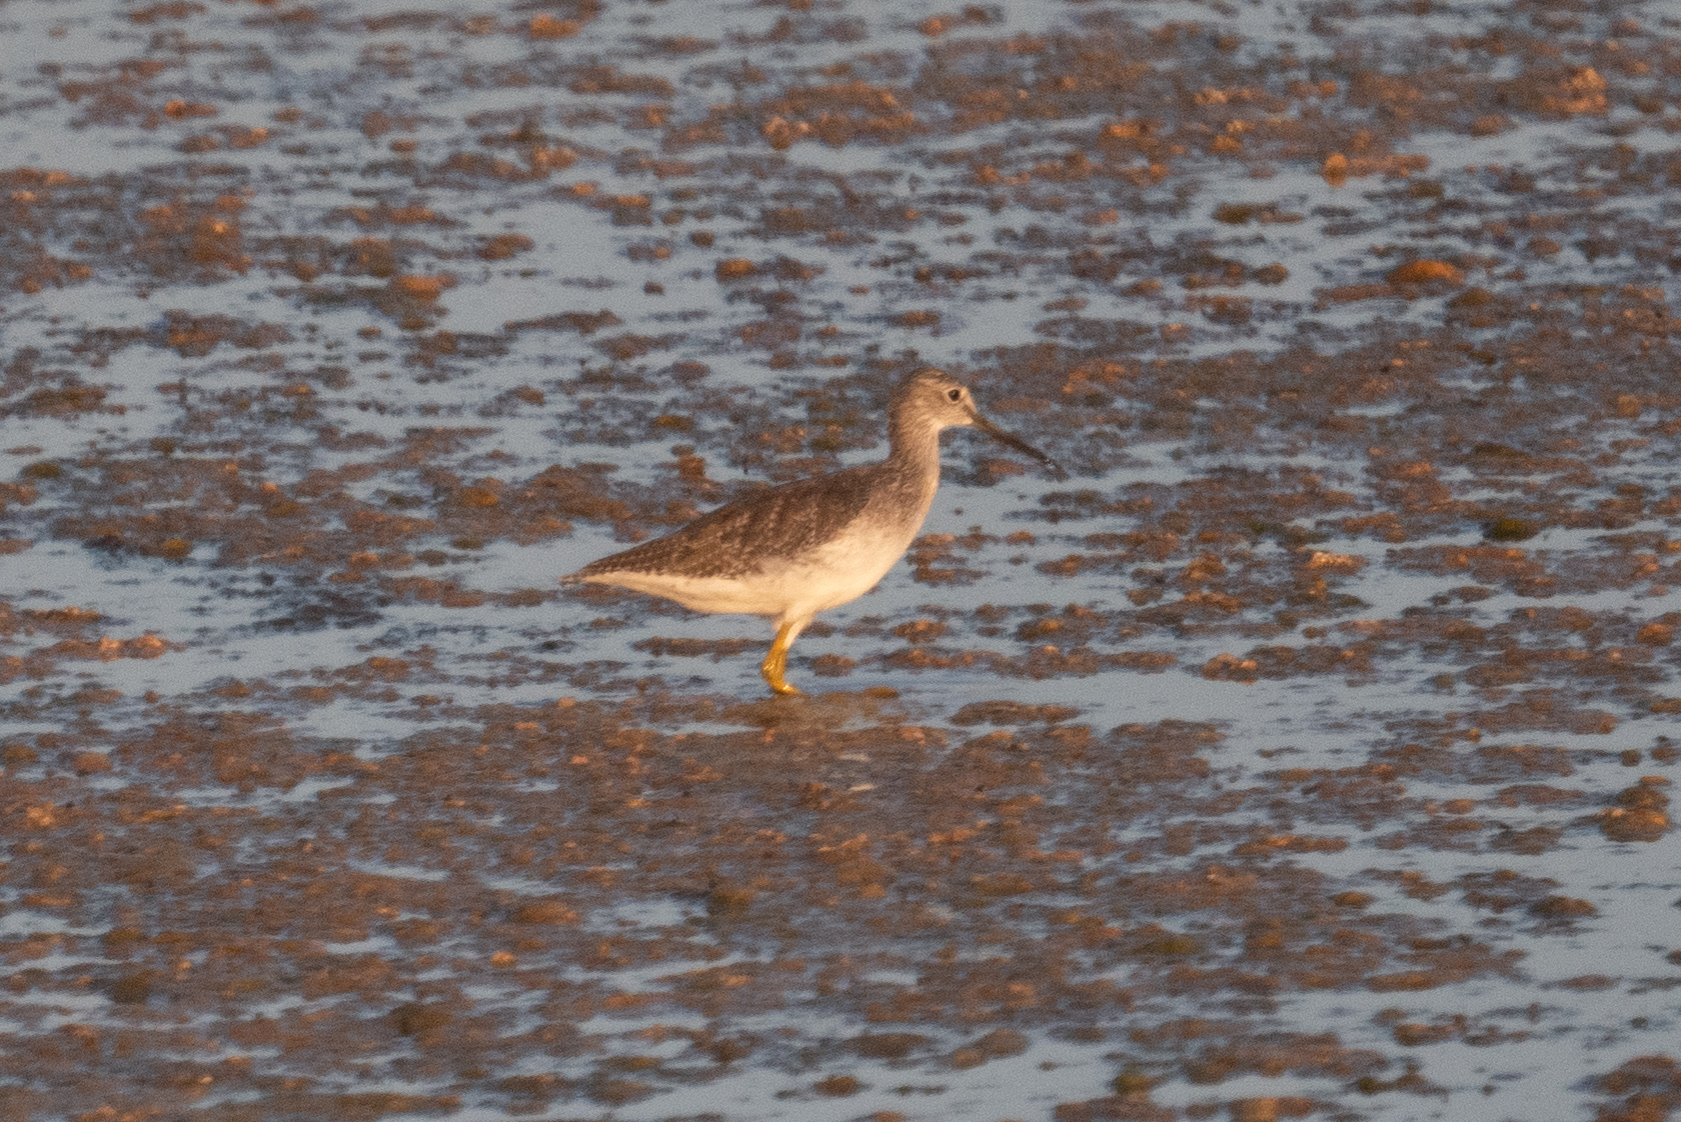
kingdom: Animalia
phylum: Chordata
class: Aves
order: Charadriiformes
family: Scolopacidae
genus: Tringa
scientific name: Tringa melanoleuca
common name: Greater yellowlegs
